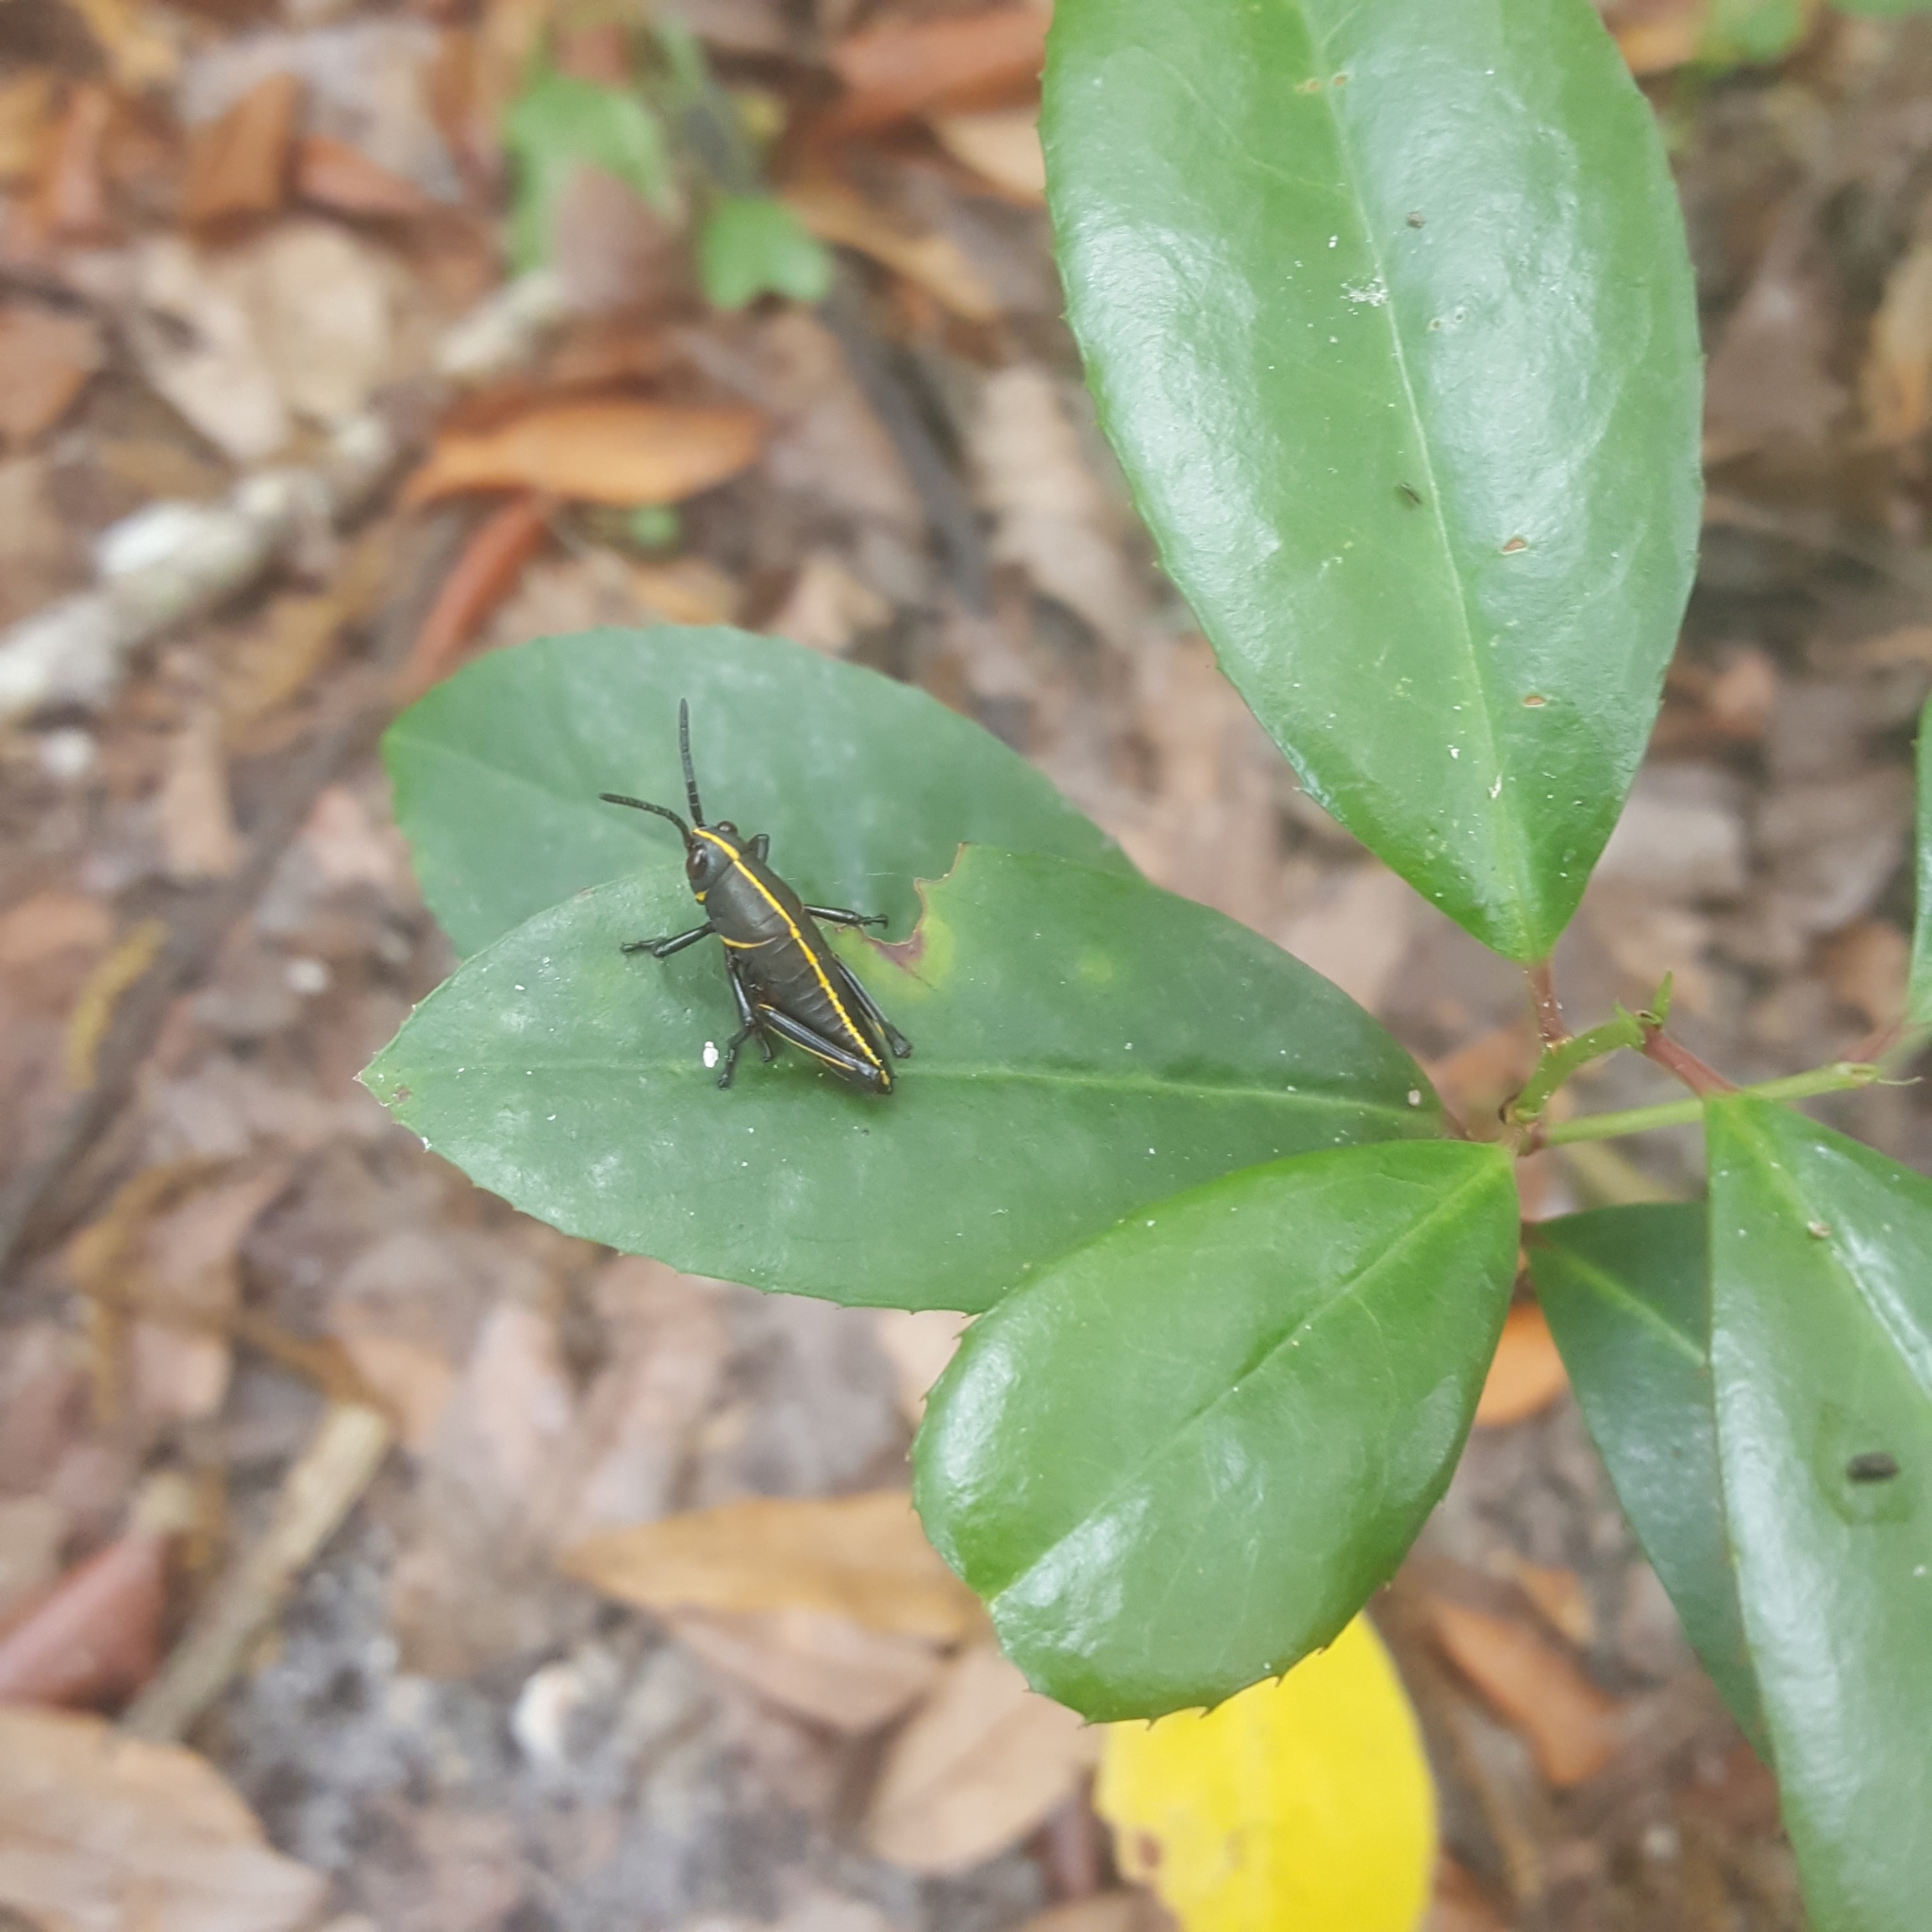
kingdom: Animalia
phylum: Arthropoda
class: Insecta
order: Orthoptera
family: Romaleidae
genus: Romalea
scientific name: Romalea microptera
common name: Eastern lubber grasshopper
